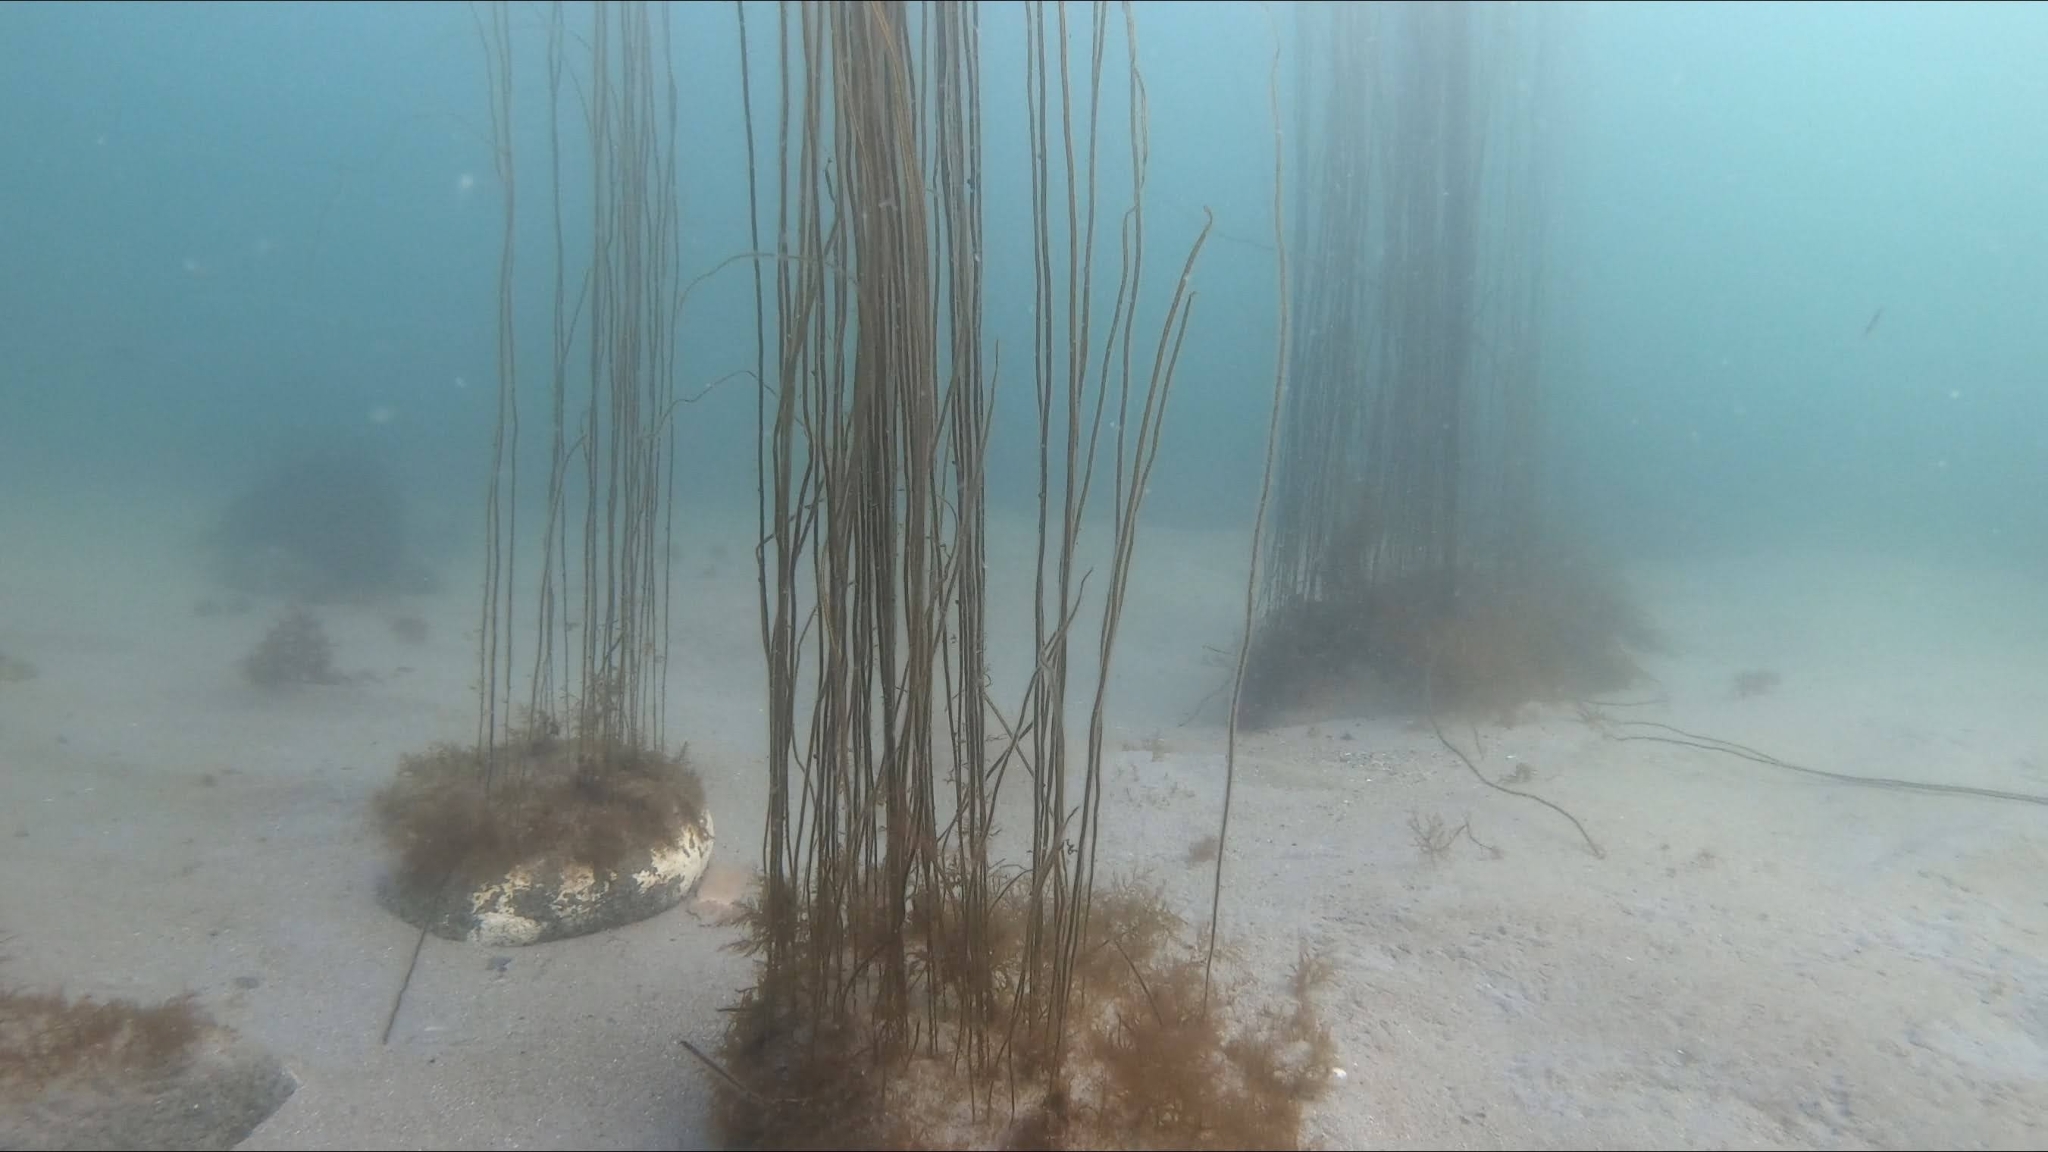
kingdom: Chromista
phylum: Ochrophyta
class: Phaeophyceae
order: Laminariales
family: Chordaceae
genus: Chorda
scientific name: Chorda filum
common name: Mermaid's tresses
